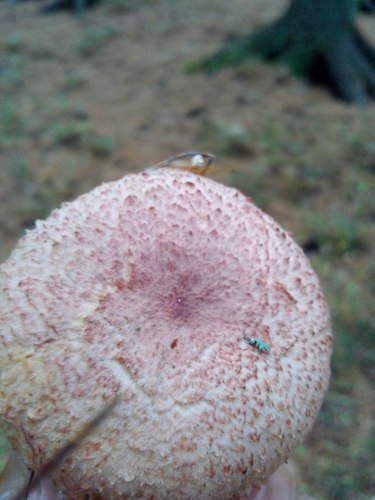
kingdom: Fungi
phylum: Basidiomycota
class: Agaricomycetes
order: Boletales
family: Gomphidiaceae
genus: Chroogomphus
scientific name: Chroogomphus
